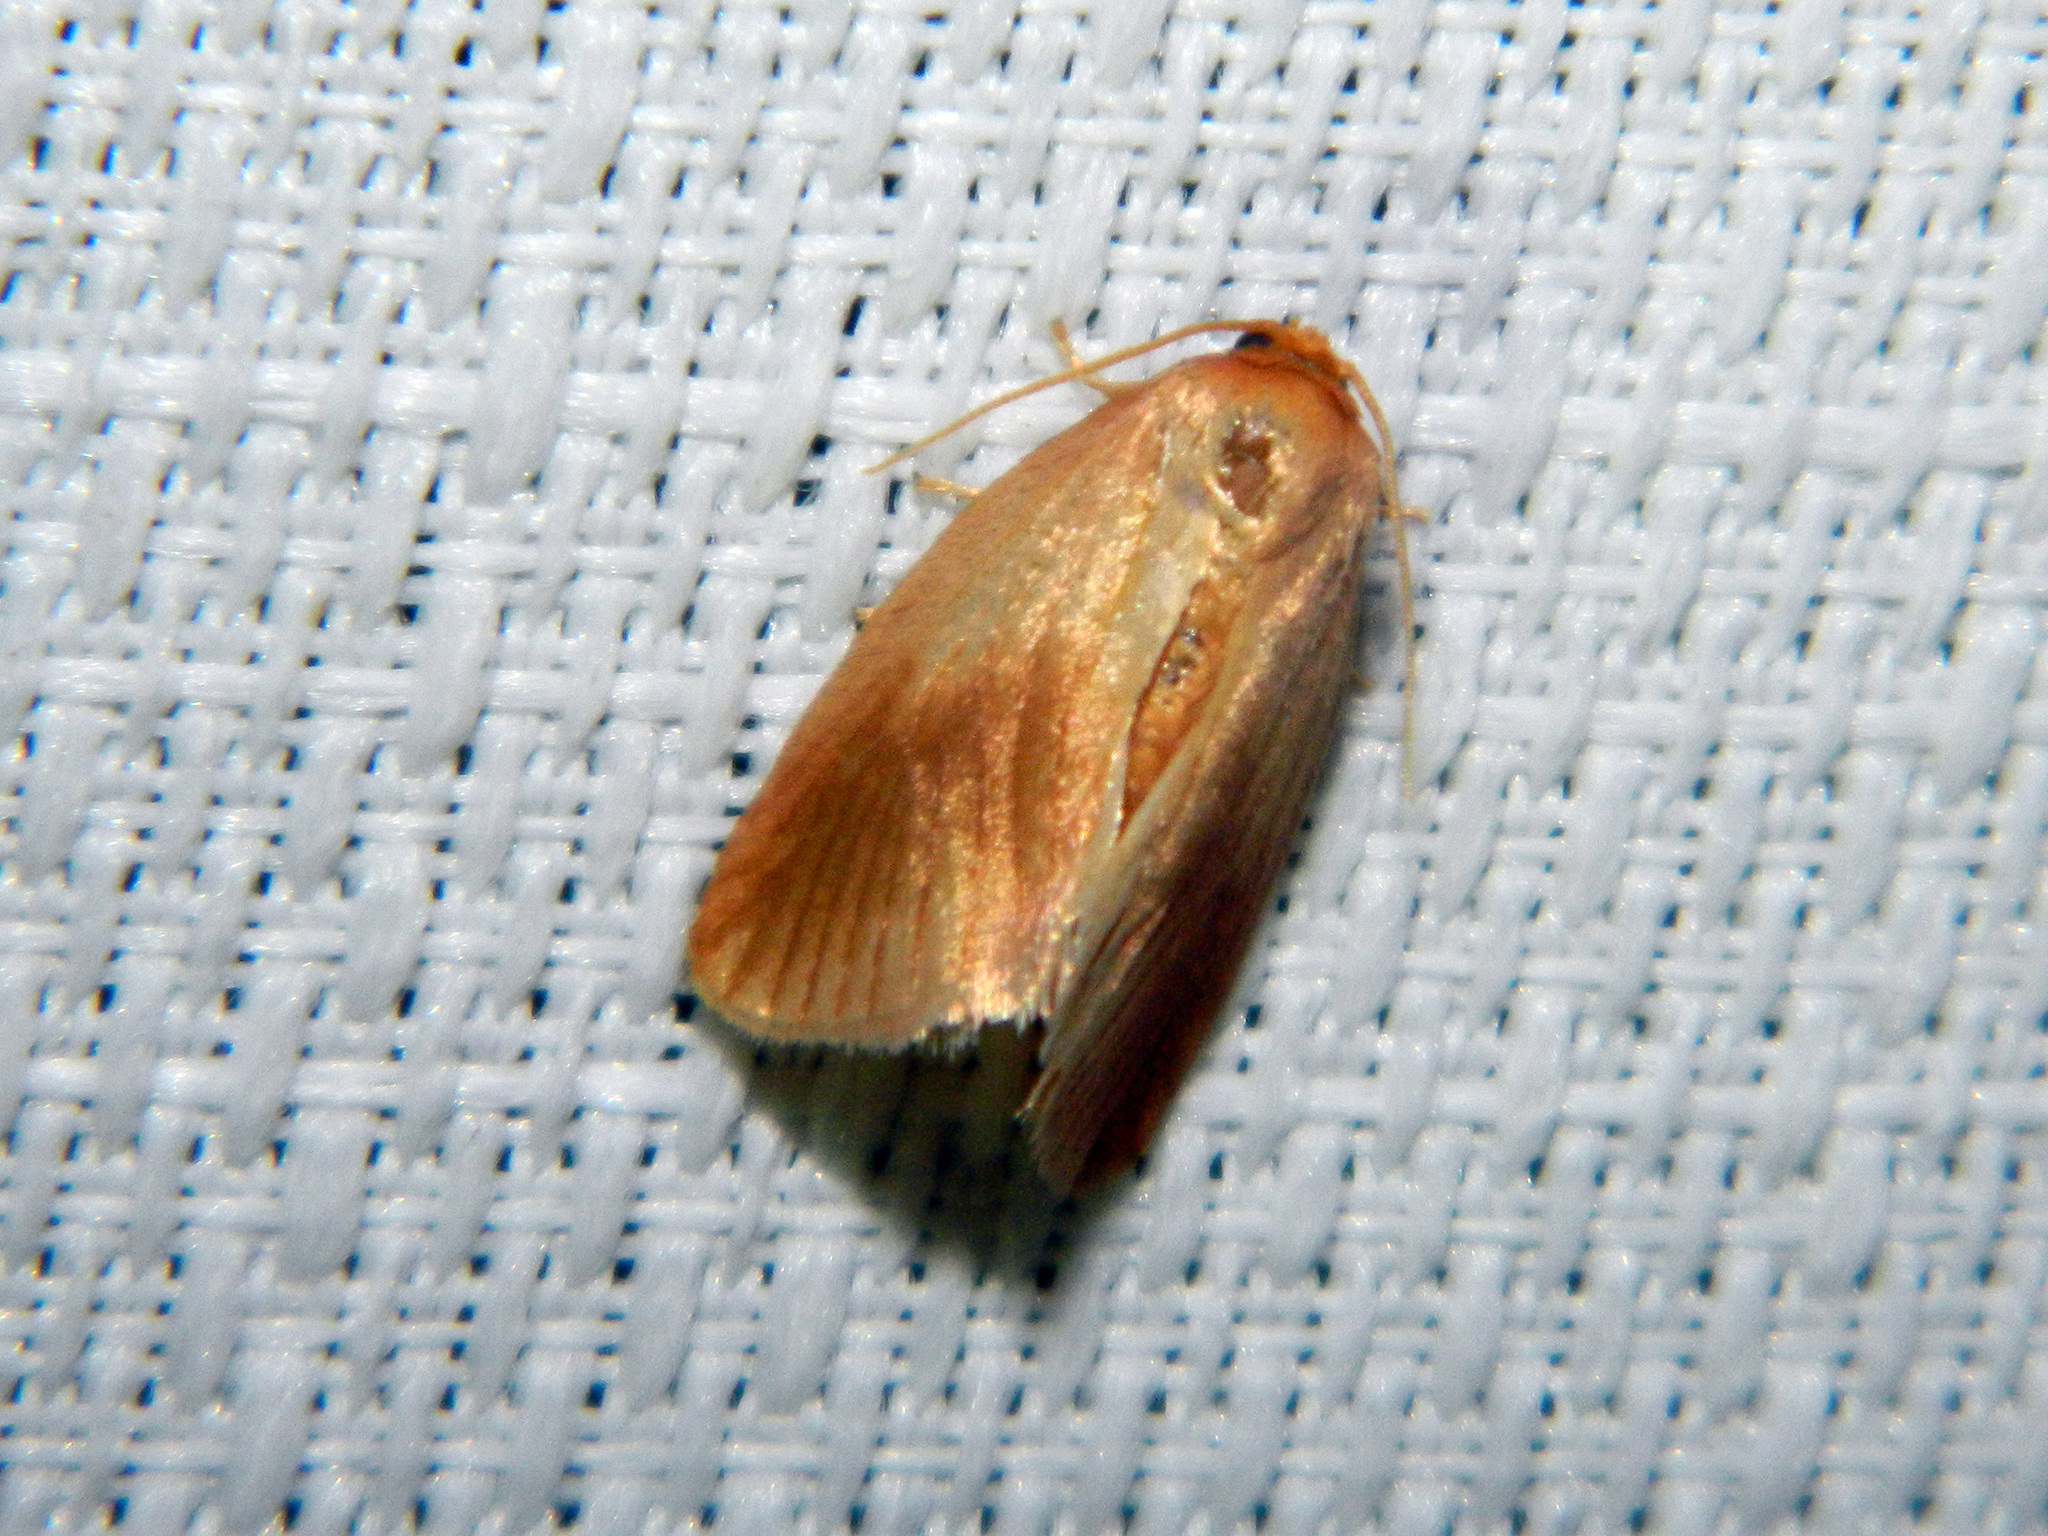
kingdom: Animalia
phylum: Arthropoda
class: Insecta
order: Lepidoptera
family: Limacodidae
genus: Tortricidia
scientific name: Tortricidia testacea
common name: Early button slug moth
